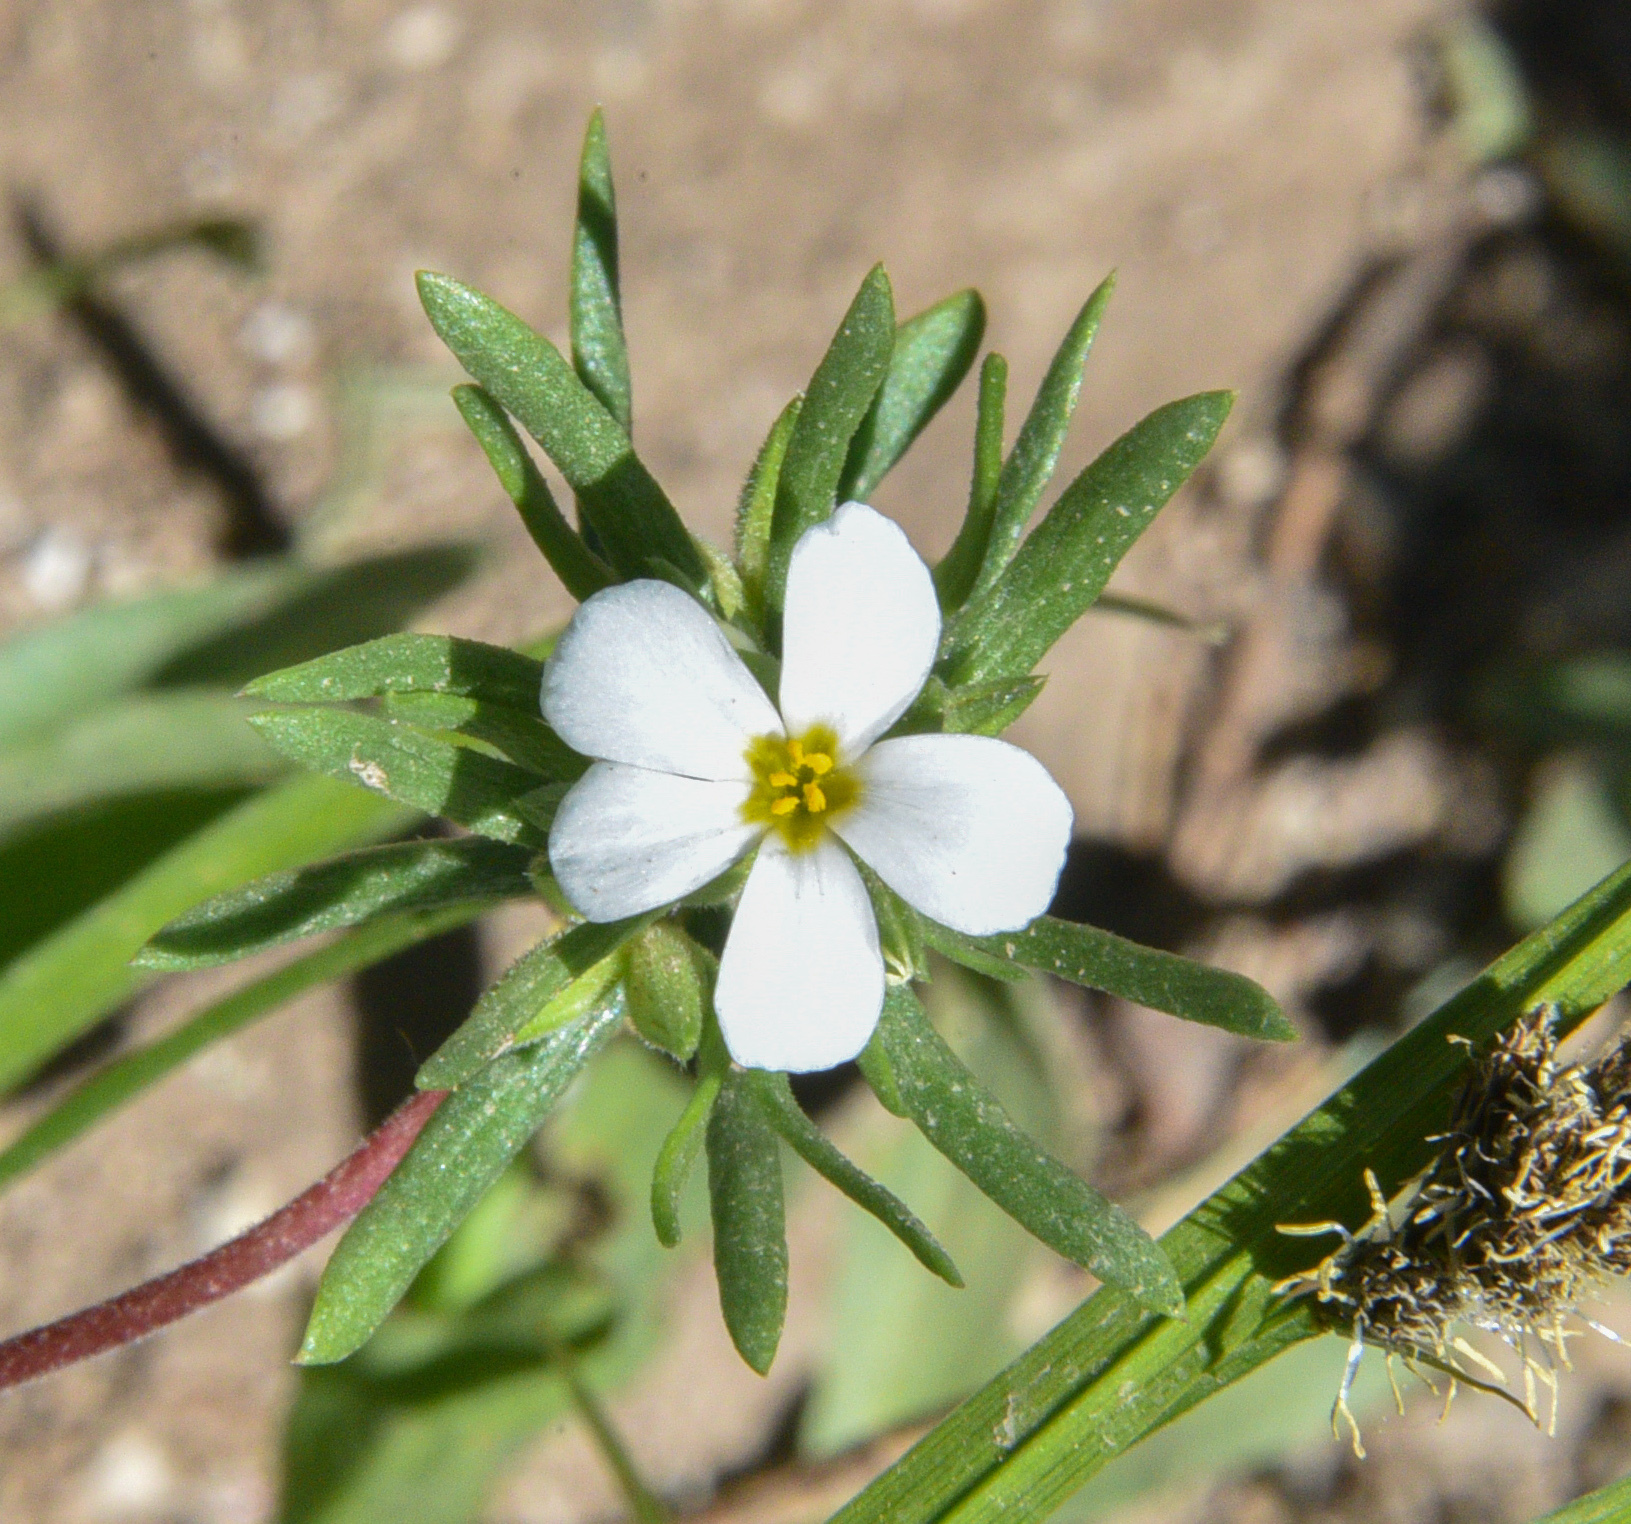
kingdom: Plantae
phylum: Tracheophyta
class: Magnoliopsida
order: Ericales
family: Polemoniaceae
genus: Leptosiphon
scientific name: Leptosiphon nuttallii
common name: Nuttall's linanthus
